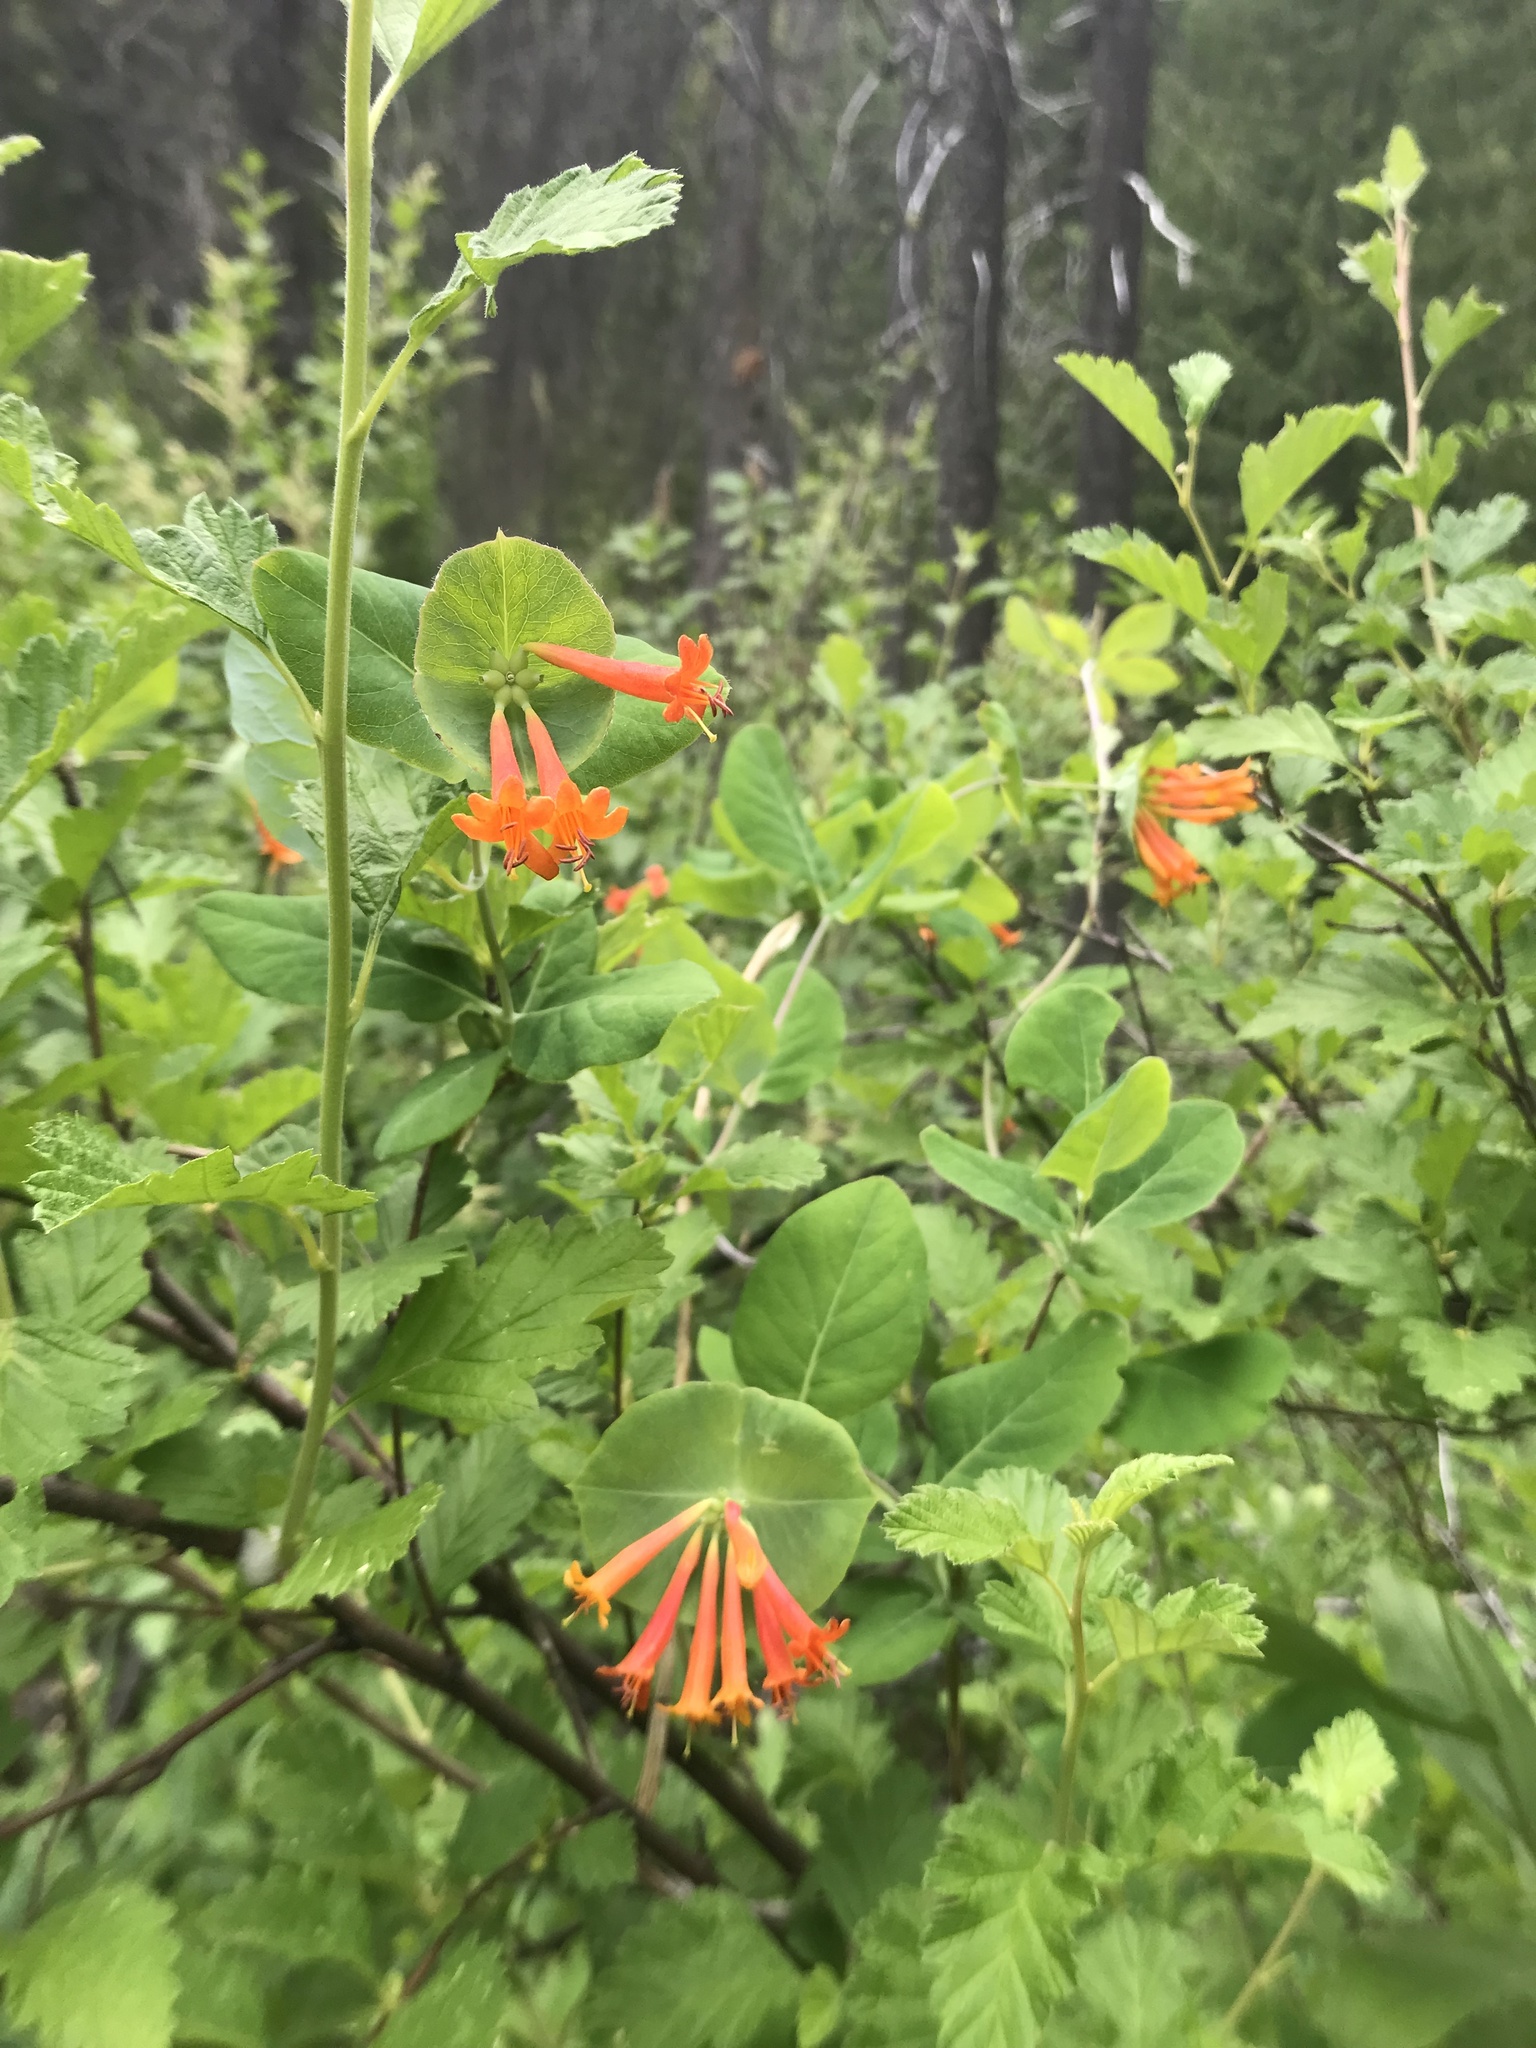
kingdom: Plantae
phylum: Tracheophyta
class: Magnoliopsida
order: Dipsacales
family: Caprifoliaceae
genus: Lonicera
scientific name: Lonicera ciliosa
